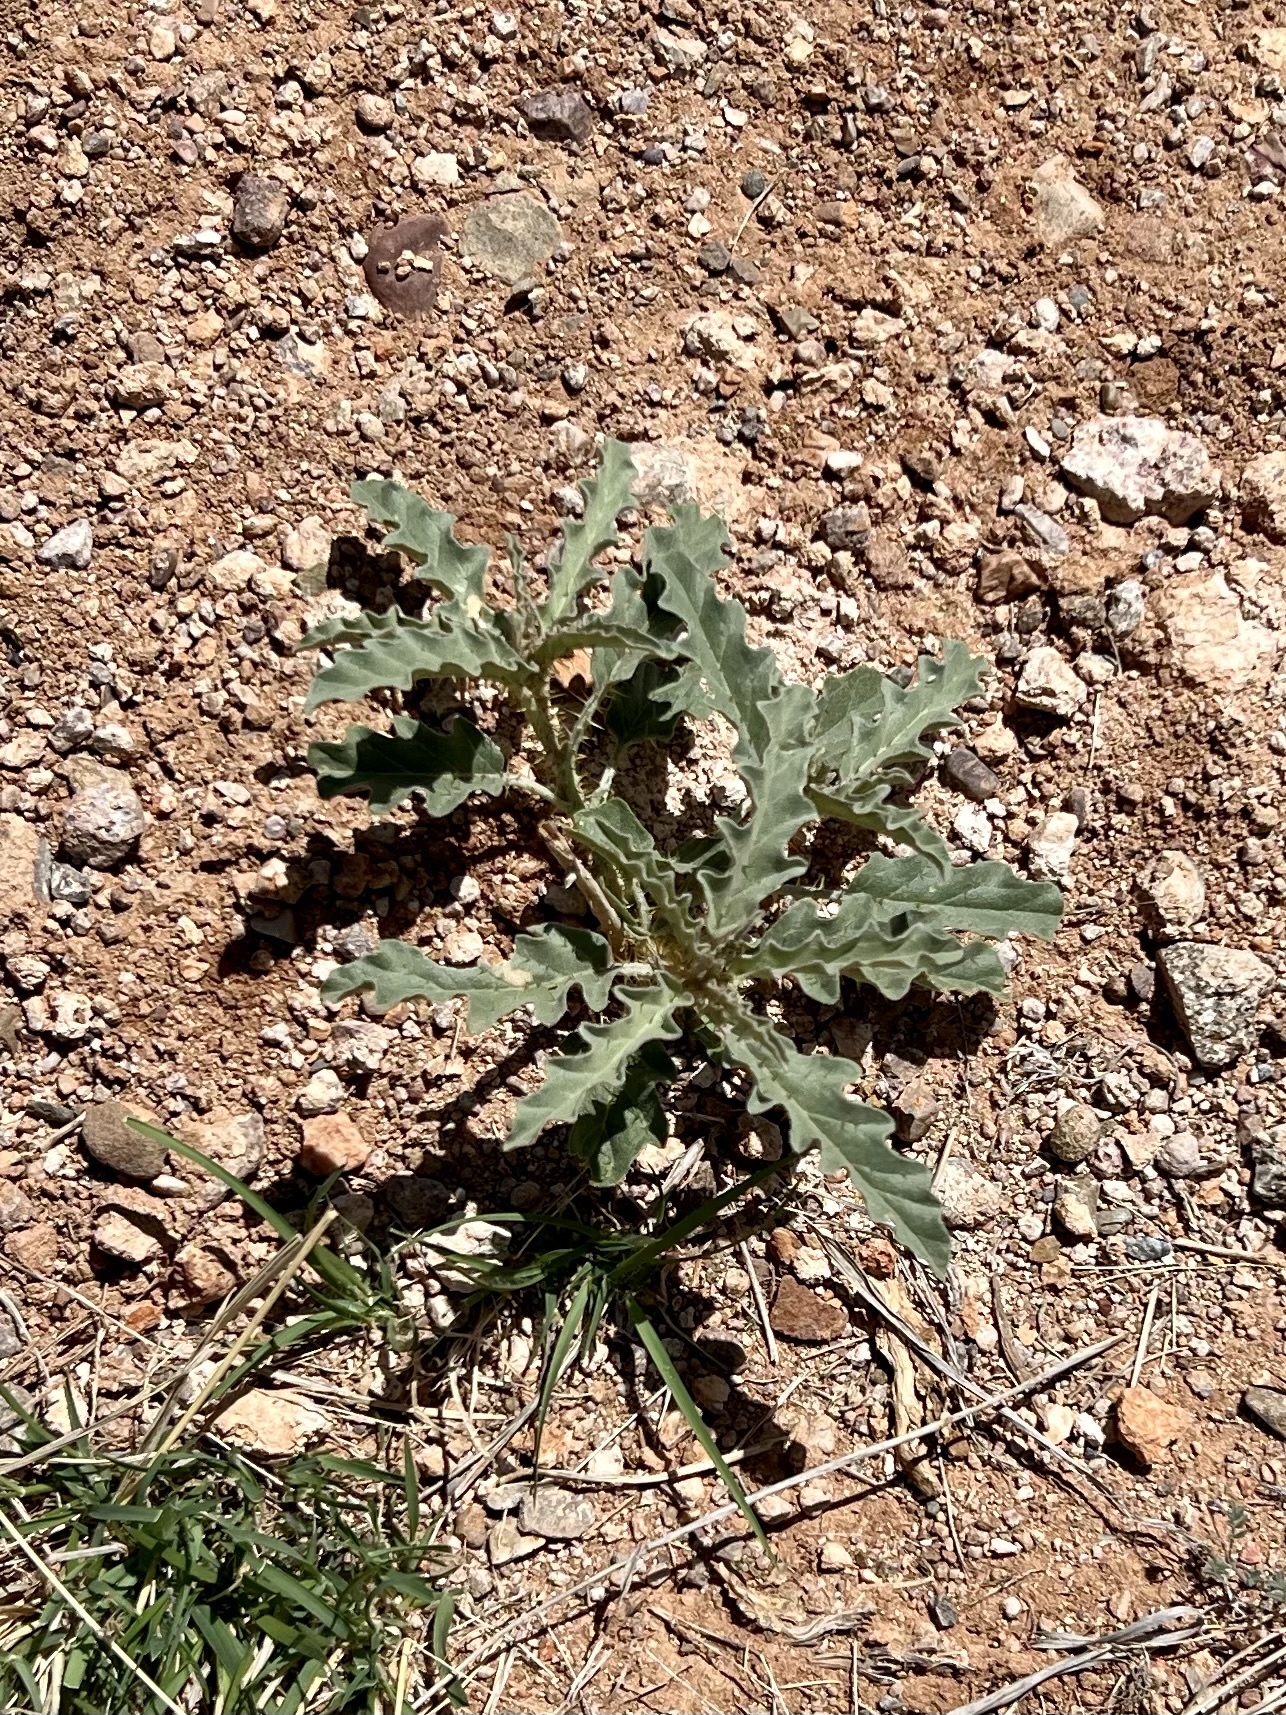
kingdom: Plantae
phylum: Tracheophyta
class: Magnoliopsida
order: Solanales
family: Solanaceae
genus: Solanum
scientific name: Solanum elaeagnifolium
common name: Silverleaf nightshade
